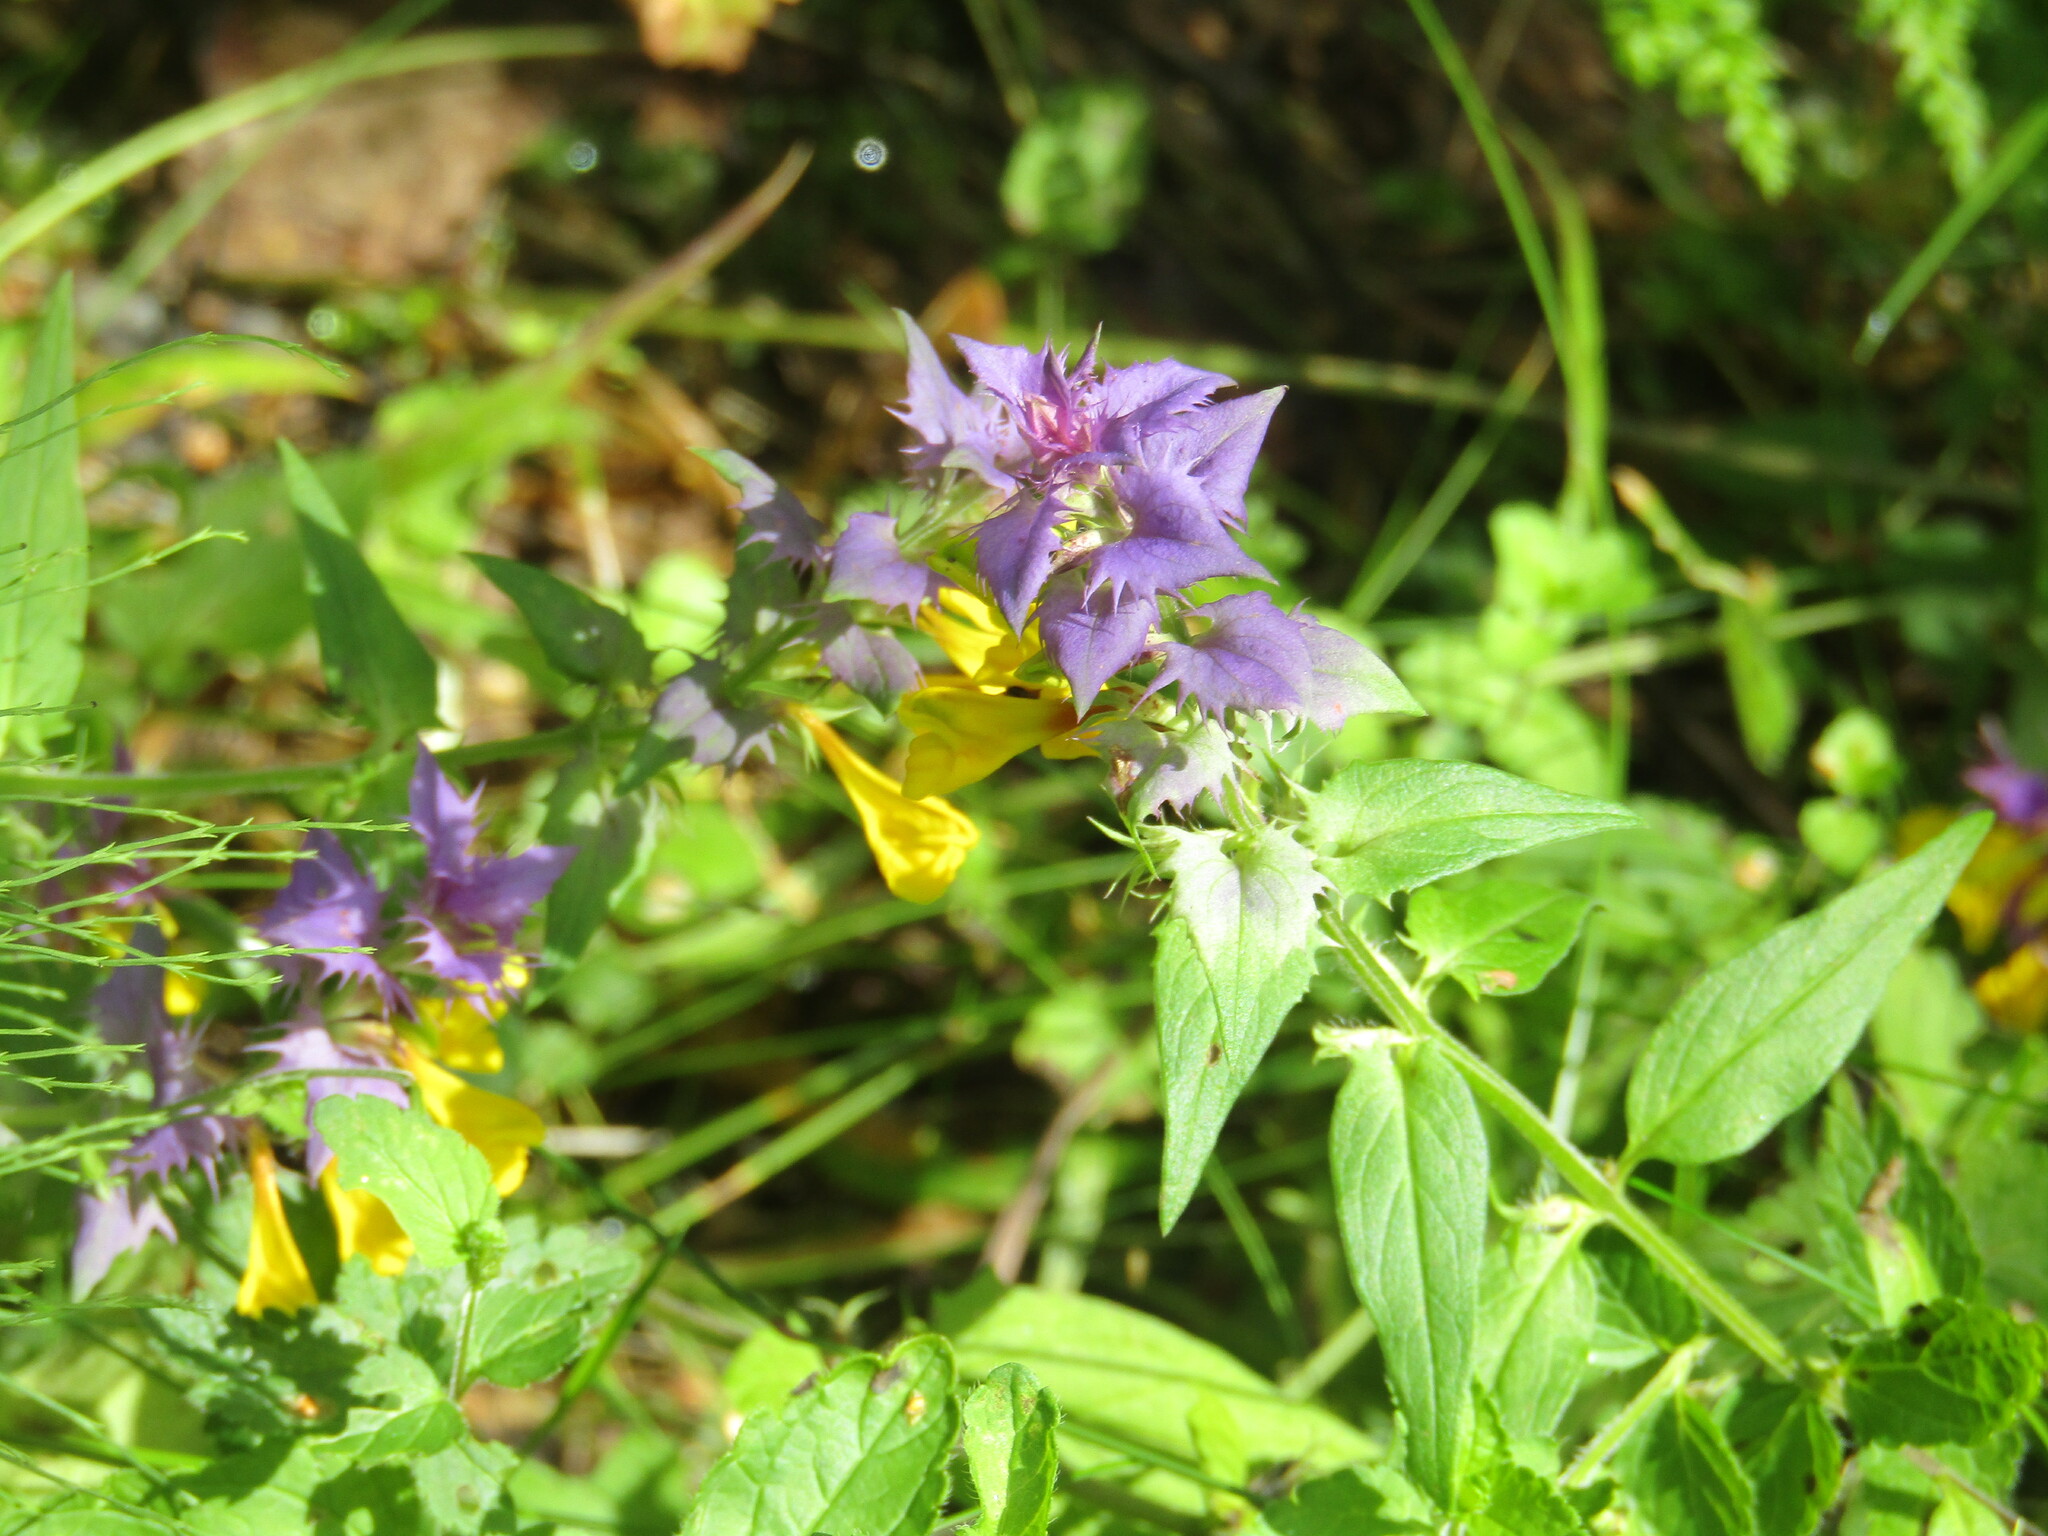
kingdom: Plantae
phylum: Tracheophyta
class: Magnoliopsida
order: Lamiales
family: Orobanchaceae
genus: Melampyrum
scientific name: Melampyrum nemorosum
